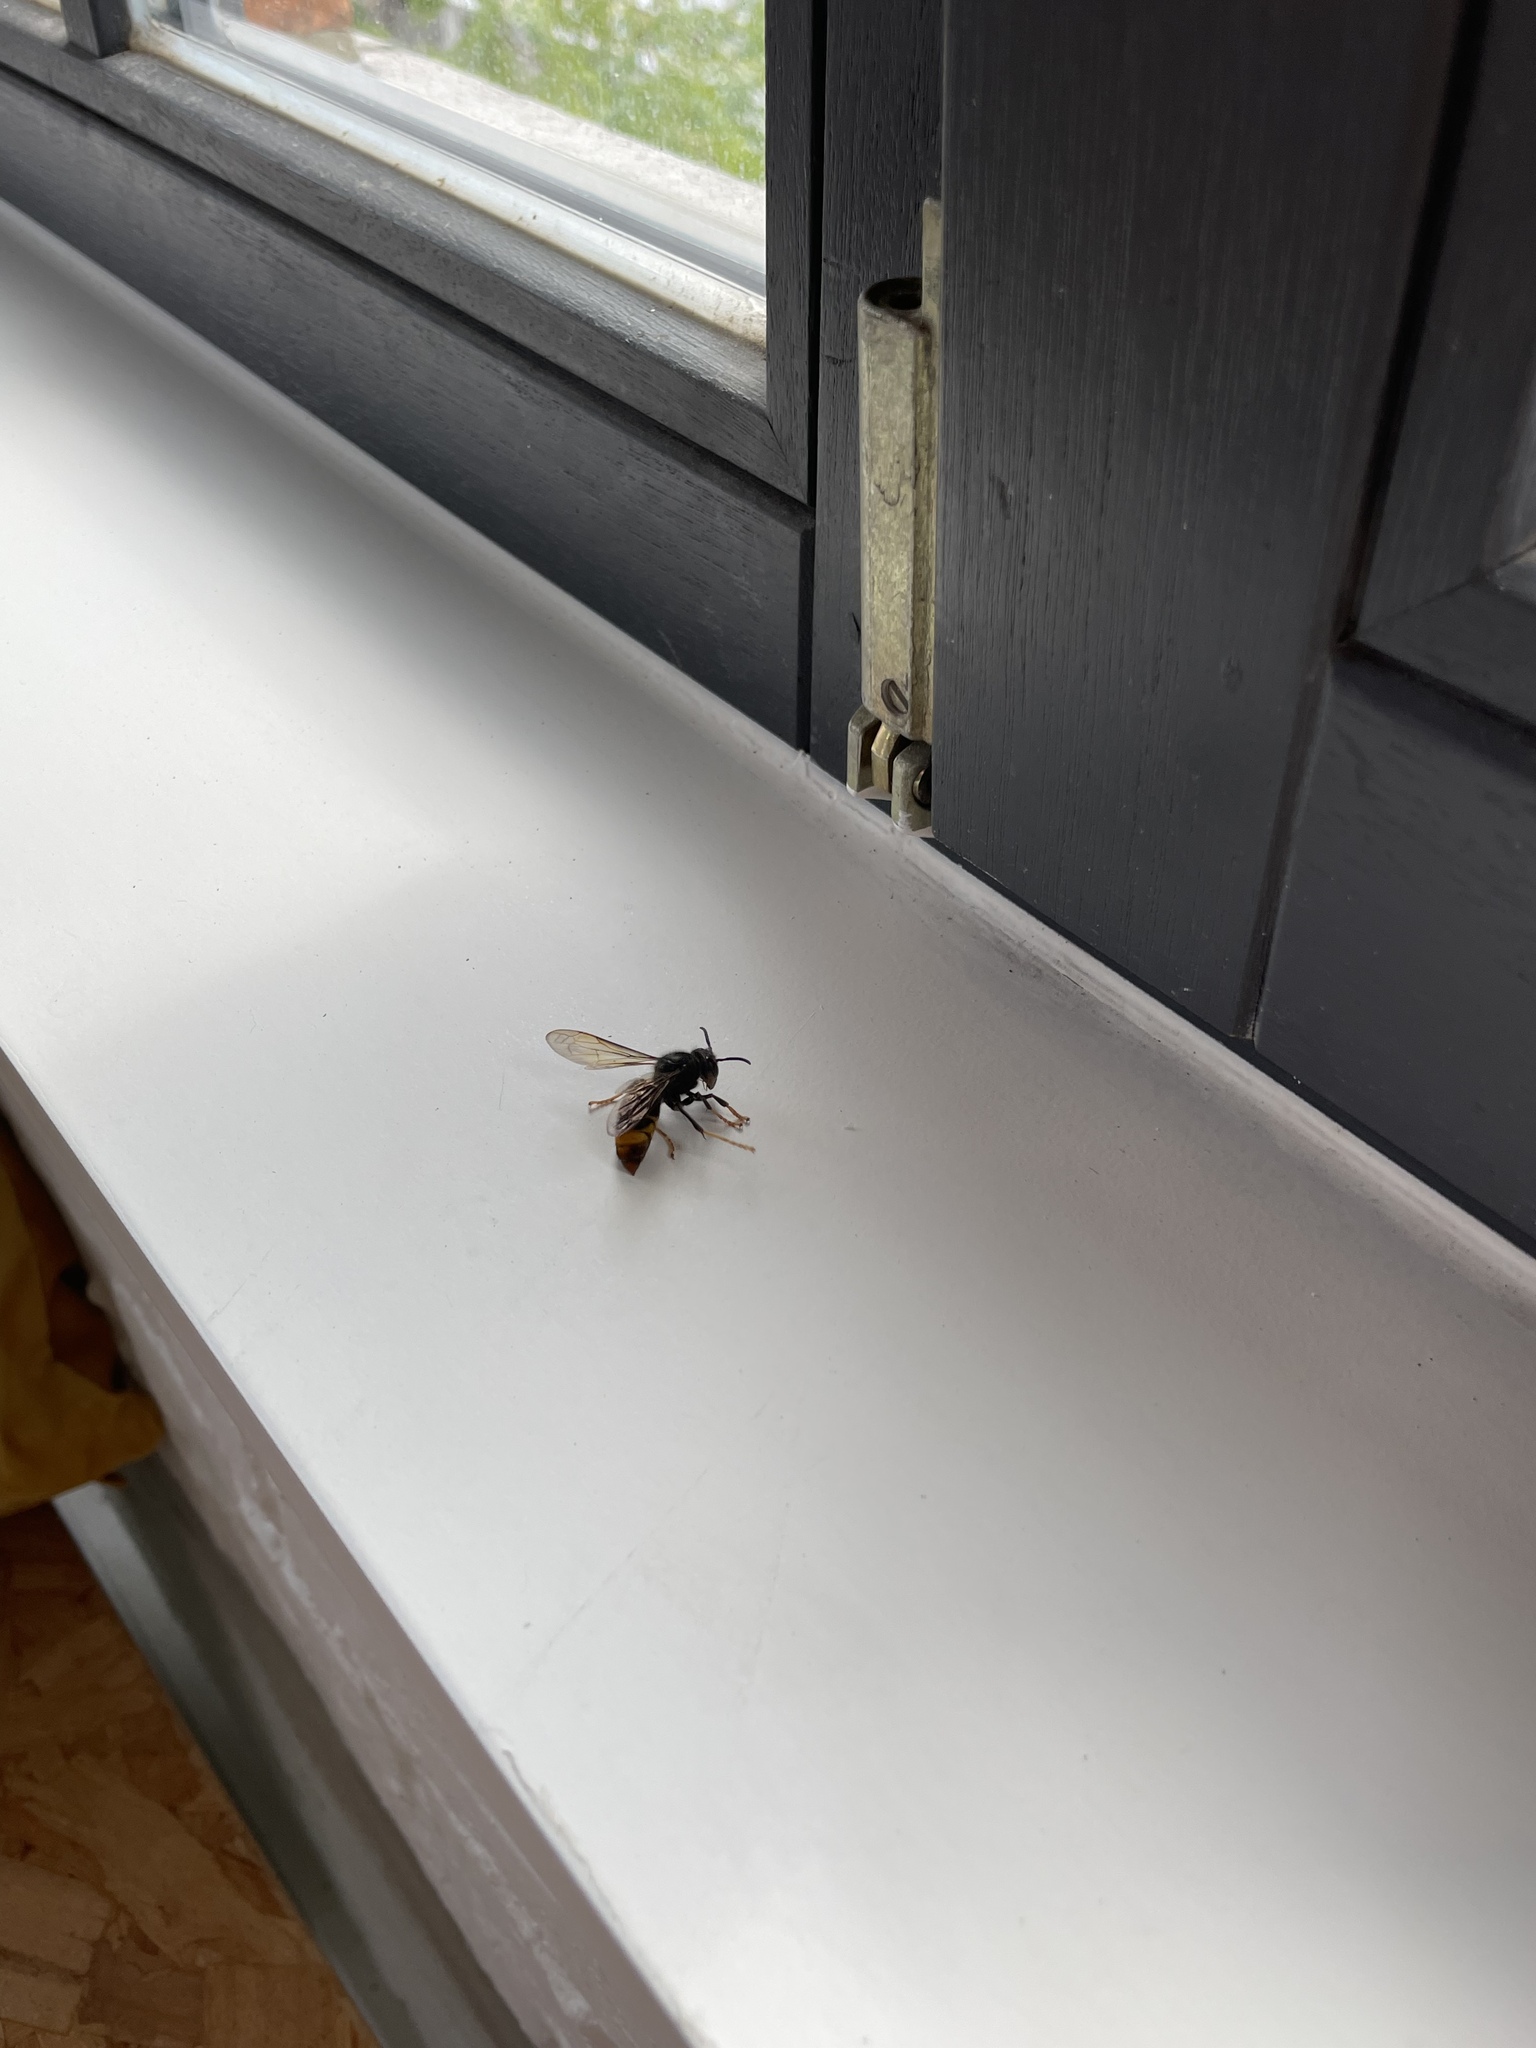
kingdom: Animalia
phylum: Arthropoda
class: Insecta
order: Hymenoptera
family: Vespidae
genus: Vespa
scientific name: Vespa velutina
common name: Asian hornet
